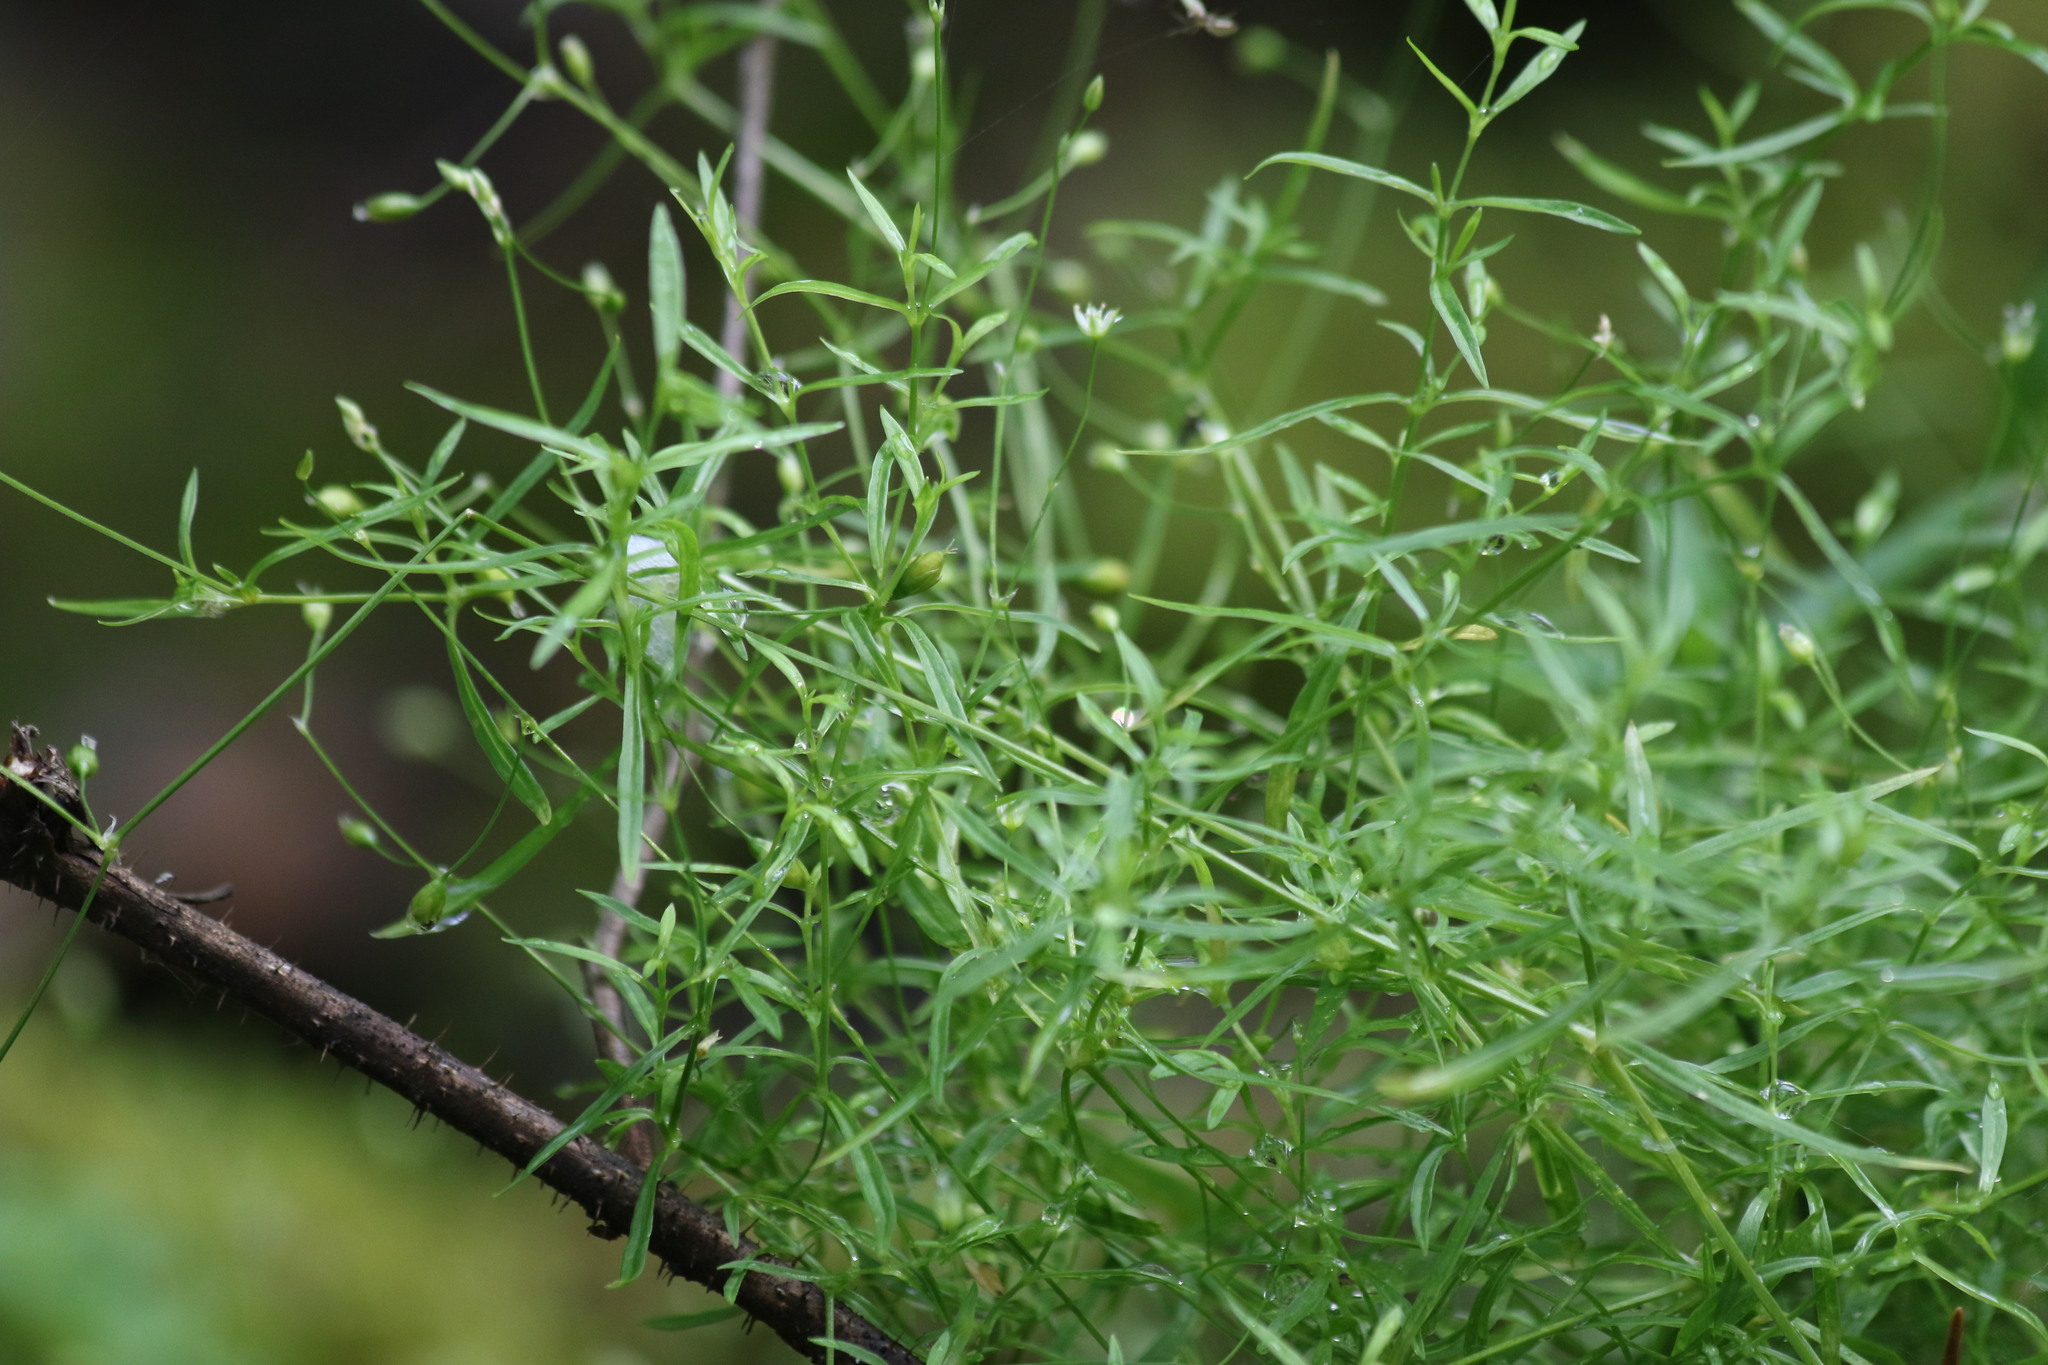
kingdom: Plantae
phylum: Tracheophyta
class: Magnoliopsida
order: Caryophyllales
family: Caryophyllaceae
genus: Stellaria
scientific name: Stellaria longifolia
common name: Long-leaved chickweed
